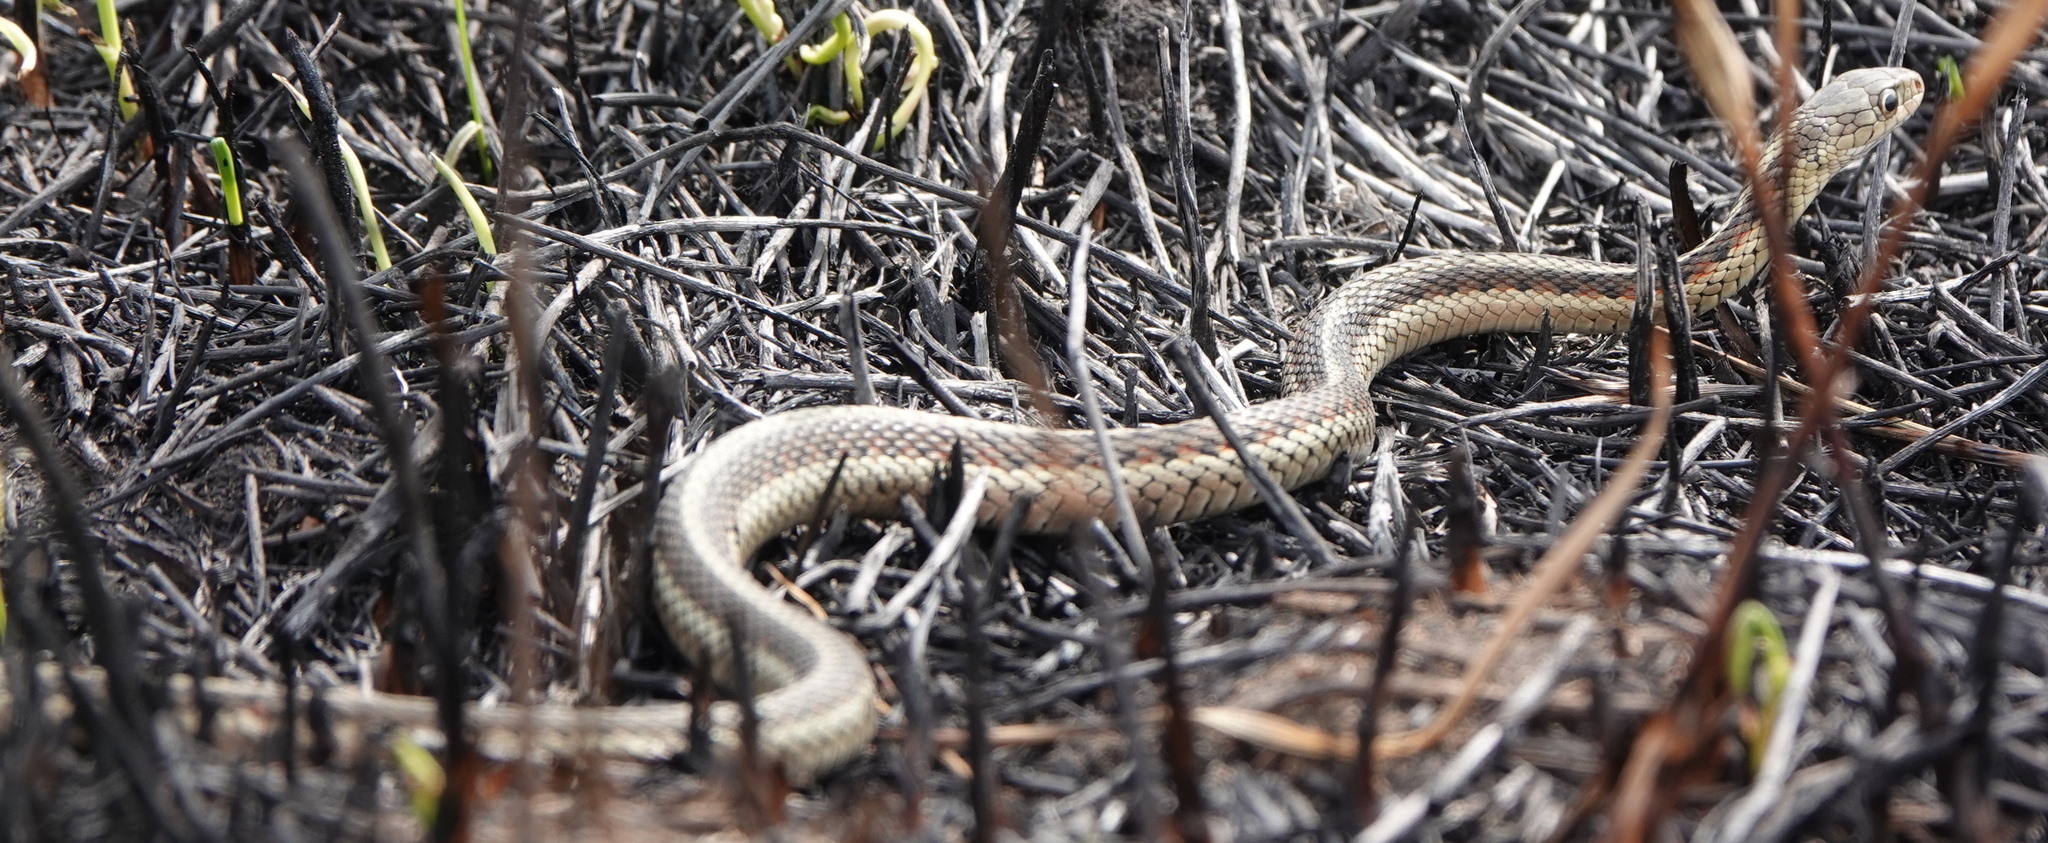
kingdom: Animalia
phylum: Chordata
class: Squamata
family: Colubridae
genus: Thamnophis
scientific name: Thamnophis sirtalis
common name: Common garter snake
